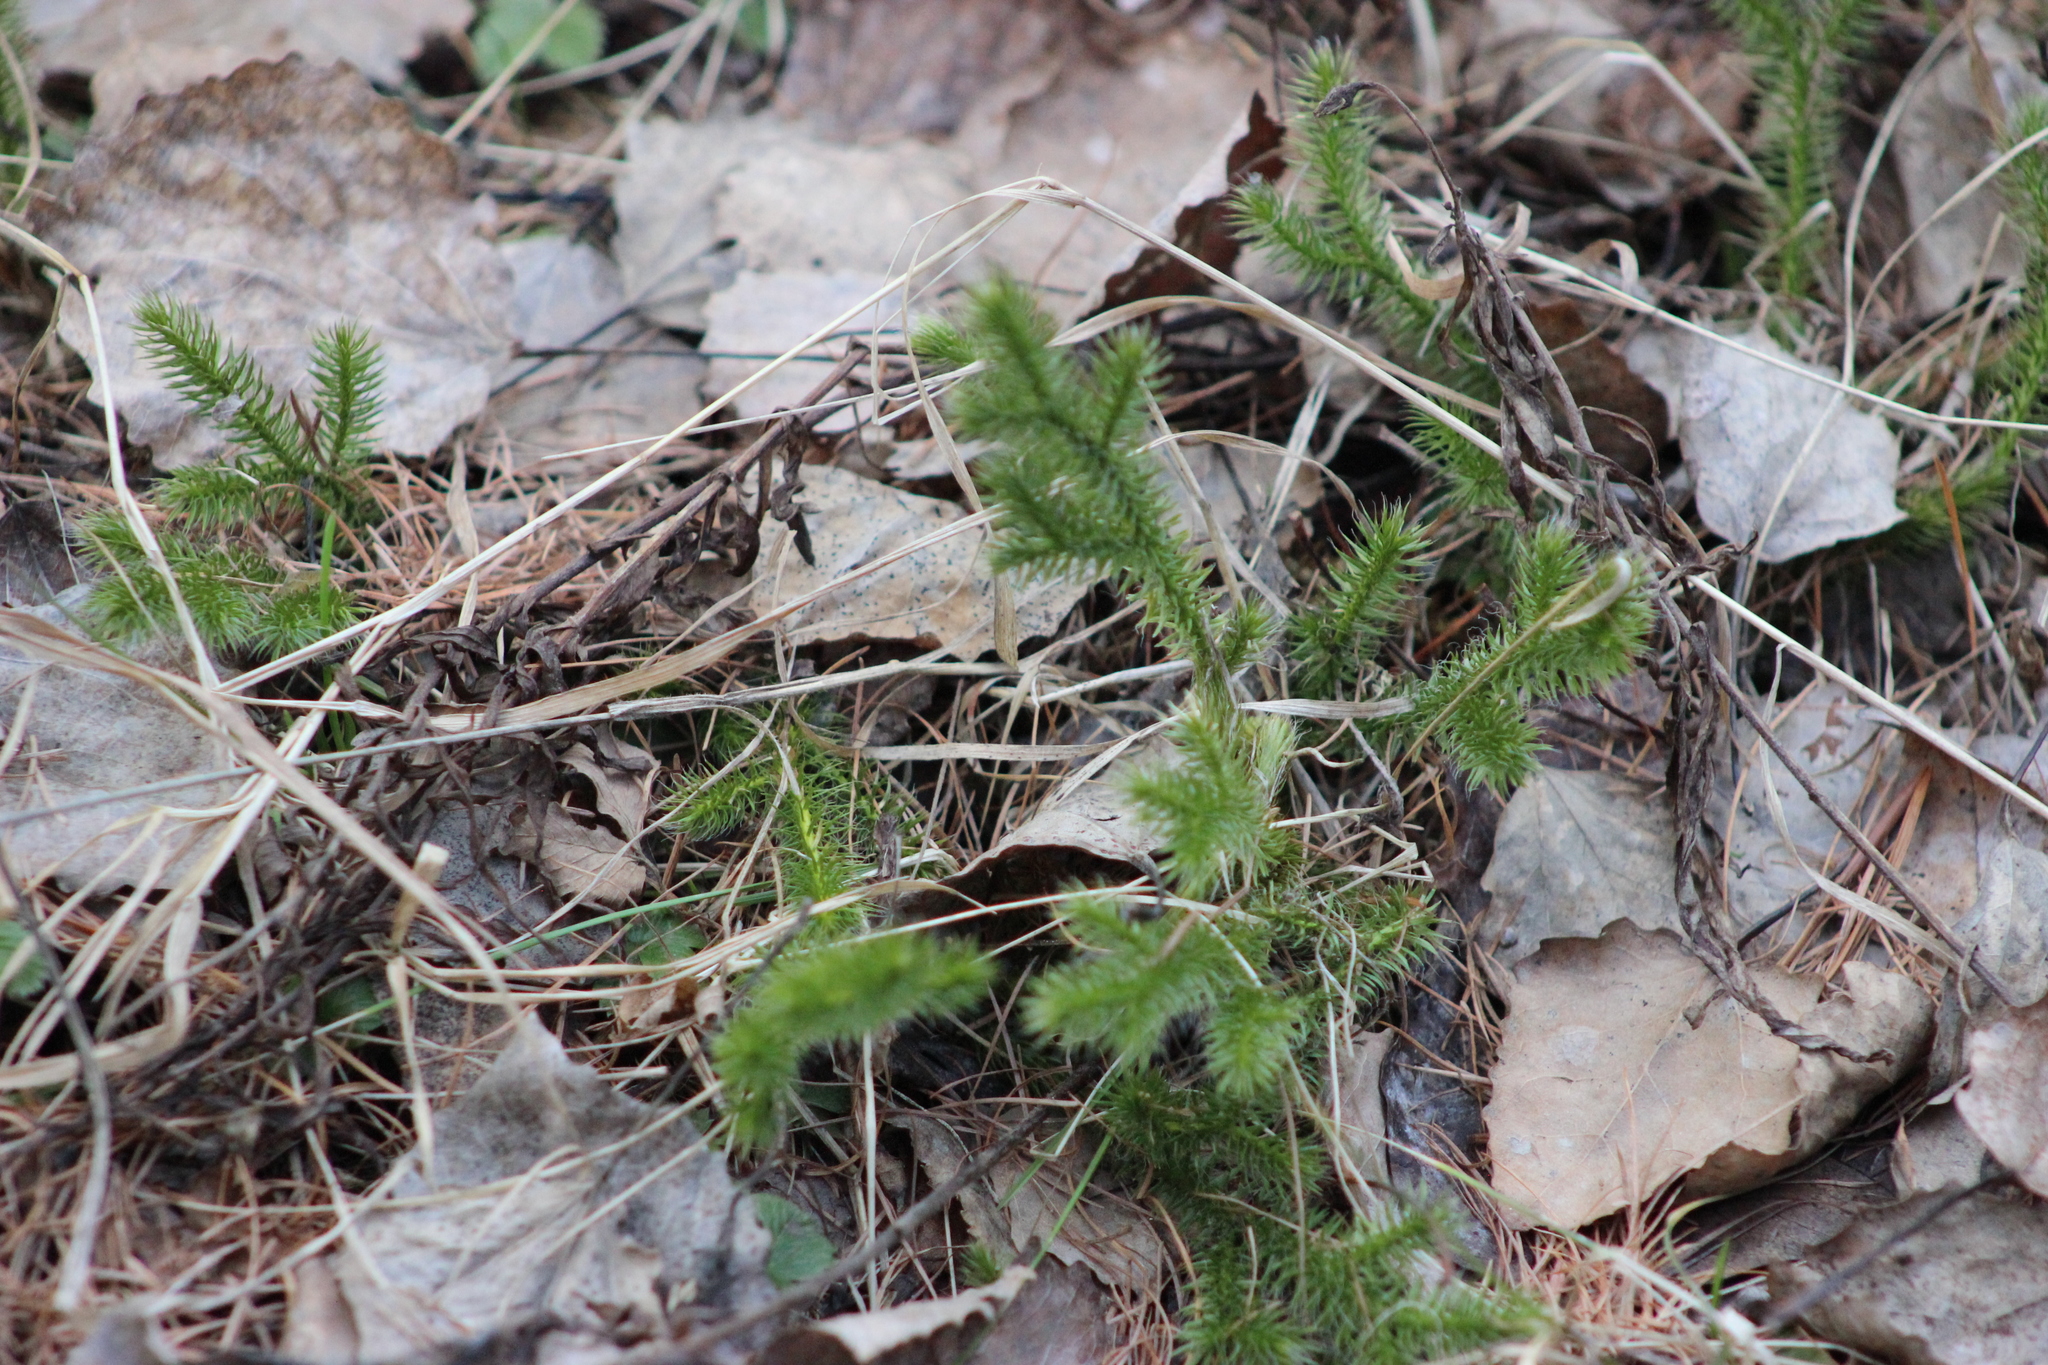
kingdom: Plantae
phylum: Tracheophyta
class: Lycopodiopsida
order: Lycopodiales
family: Lycopodiaceae
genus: Lycopodium
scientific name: Lycopodium clavatum
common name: Stag's-horn clubmoss
